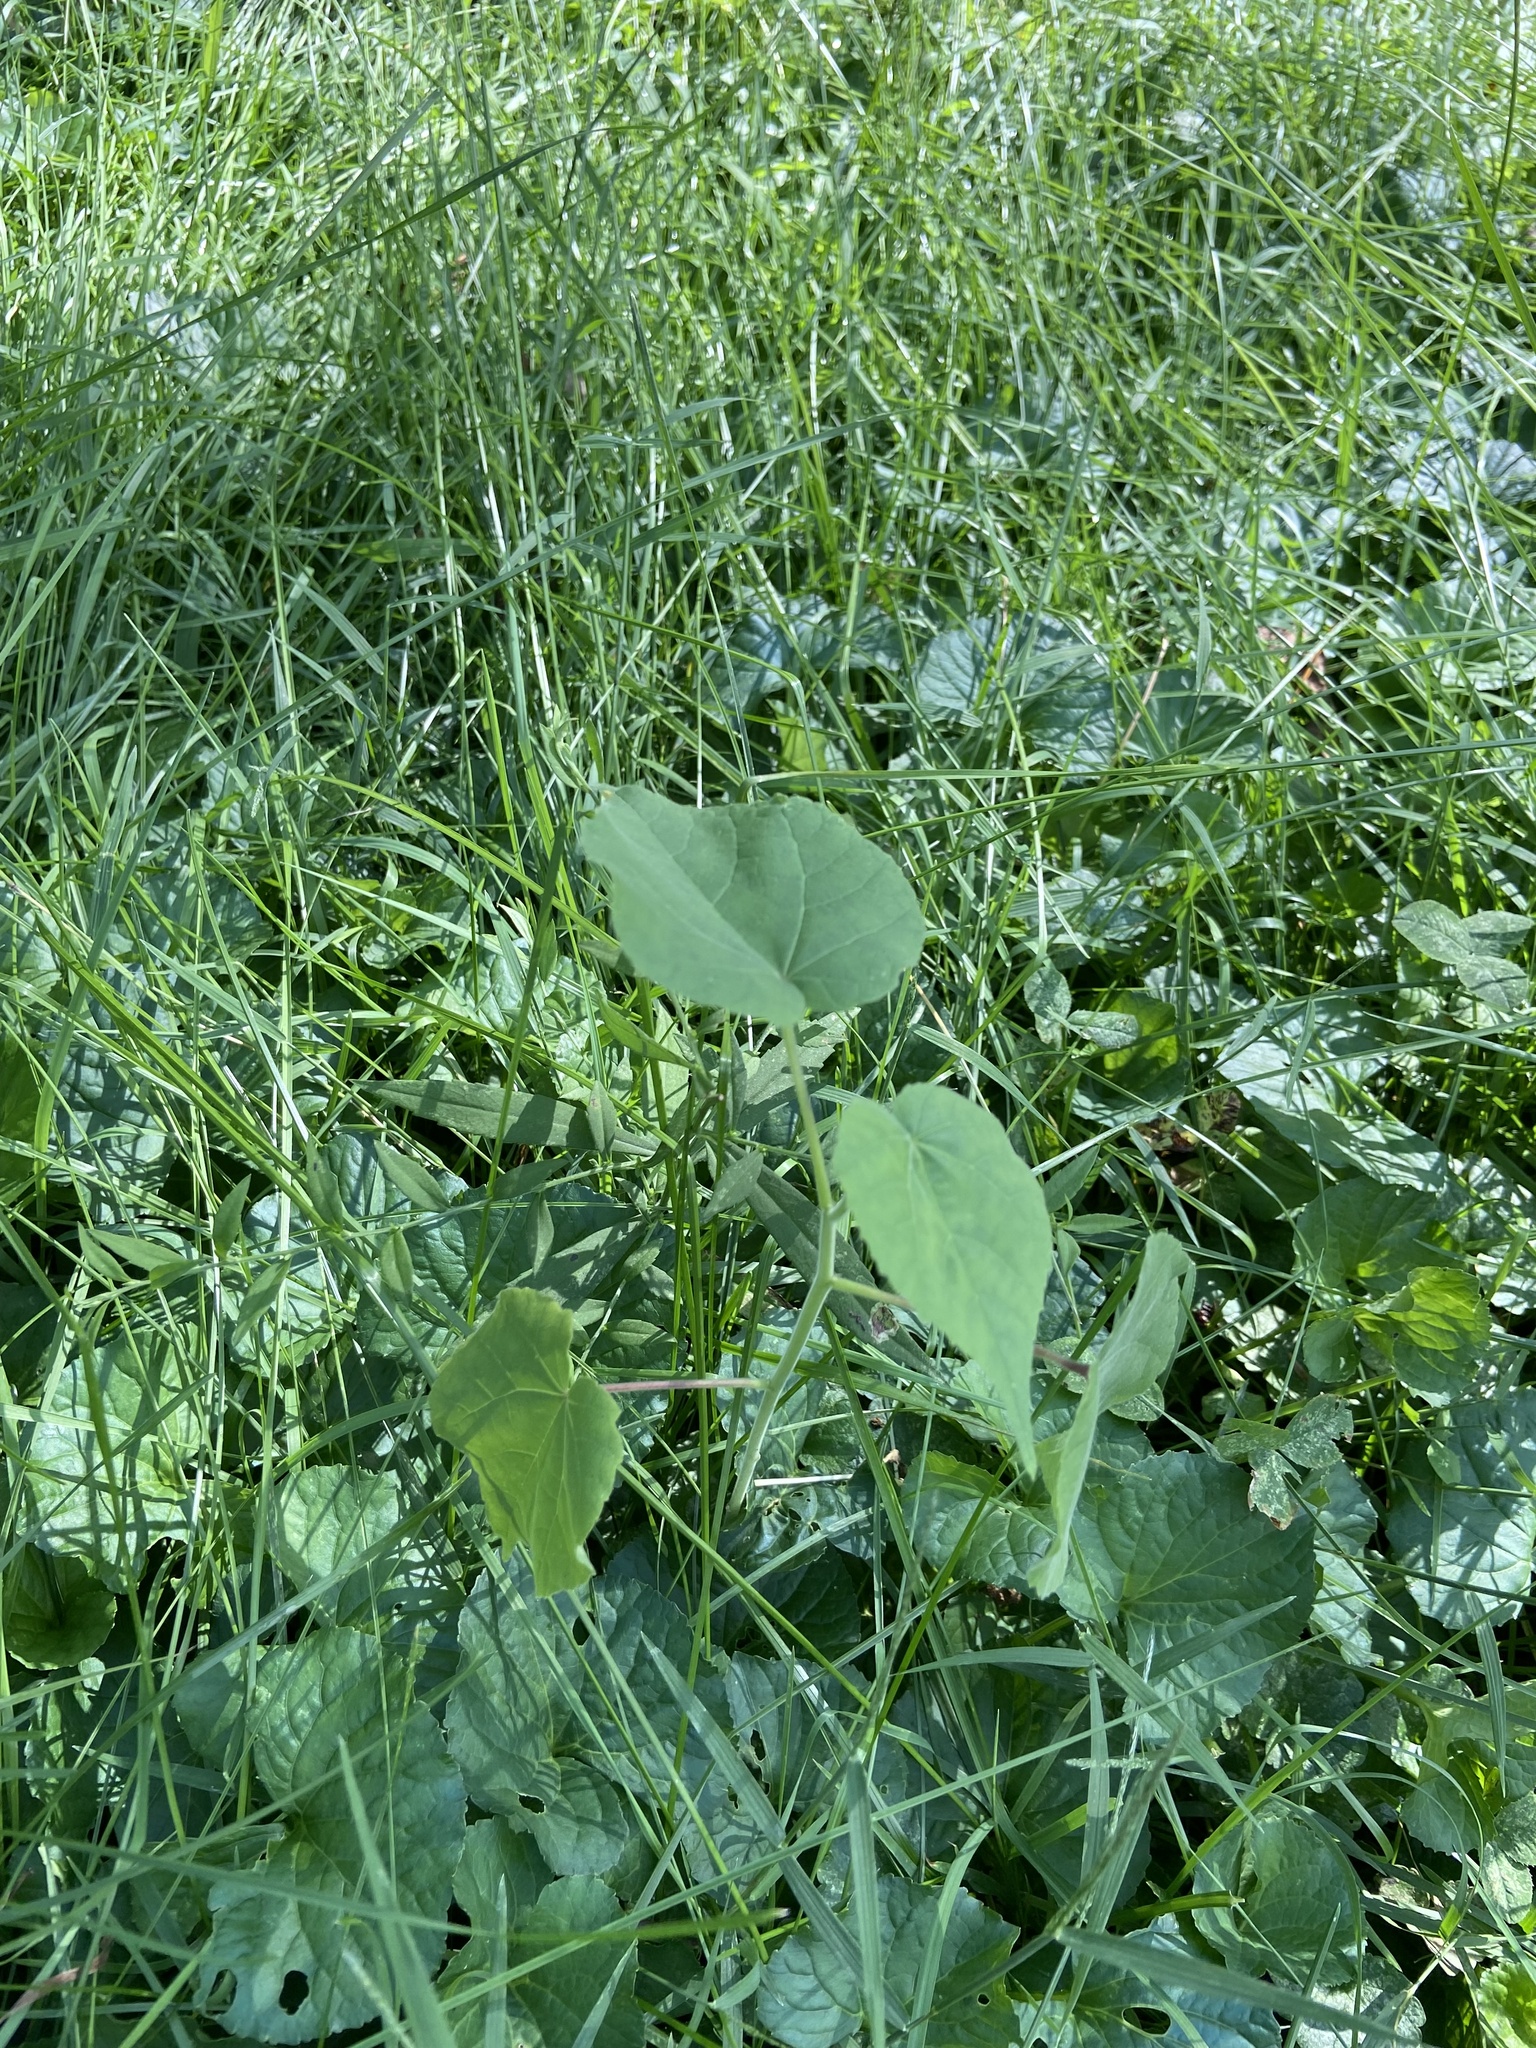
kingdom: Plantae
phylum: Tracheophyta
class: Magnoliopsida
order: Malvales
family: Malvaceae
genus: Abutilon
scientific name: Abutilon theophrasti
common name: Velvetleaf
